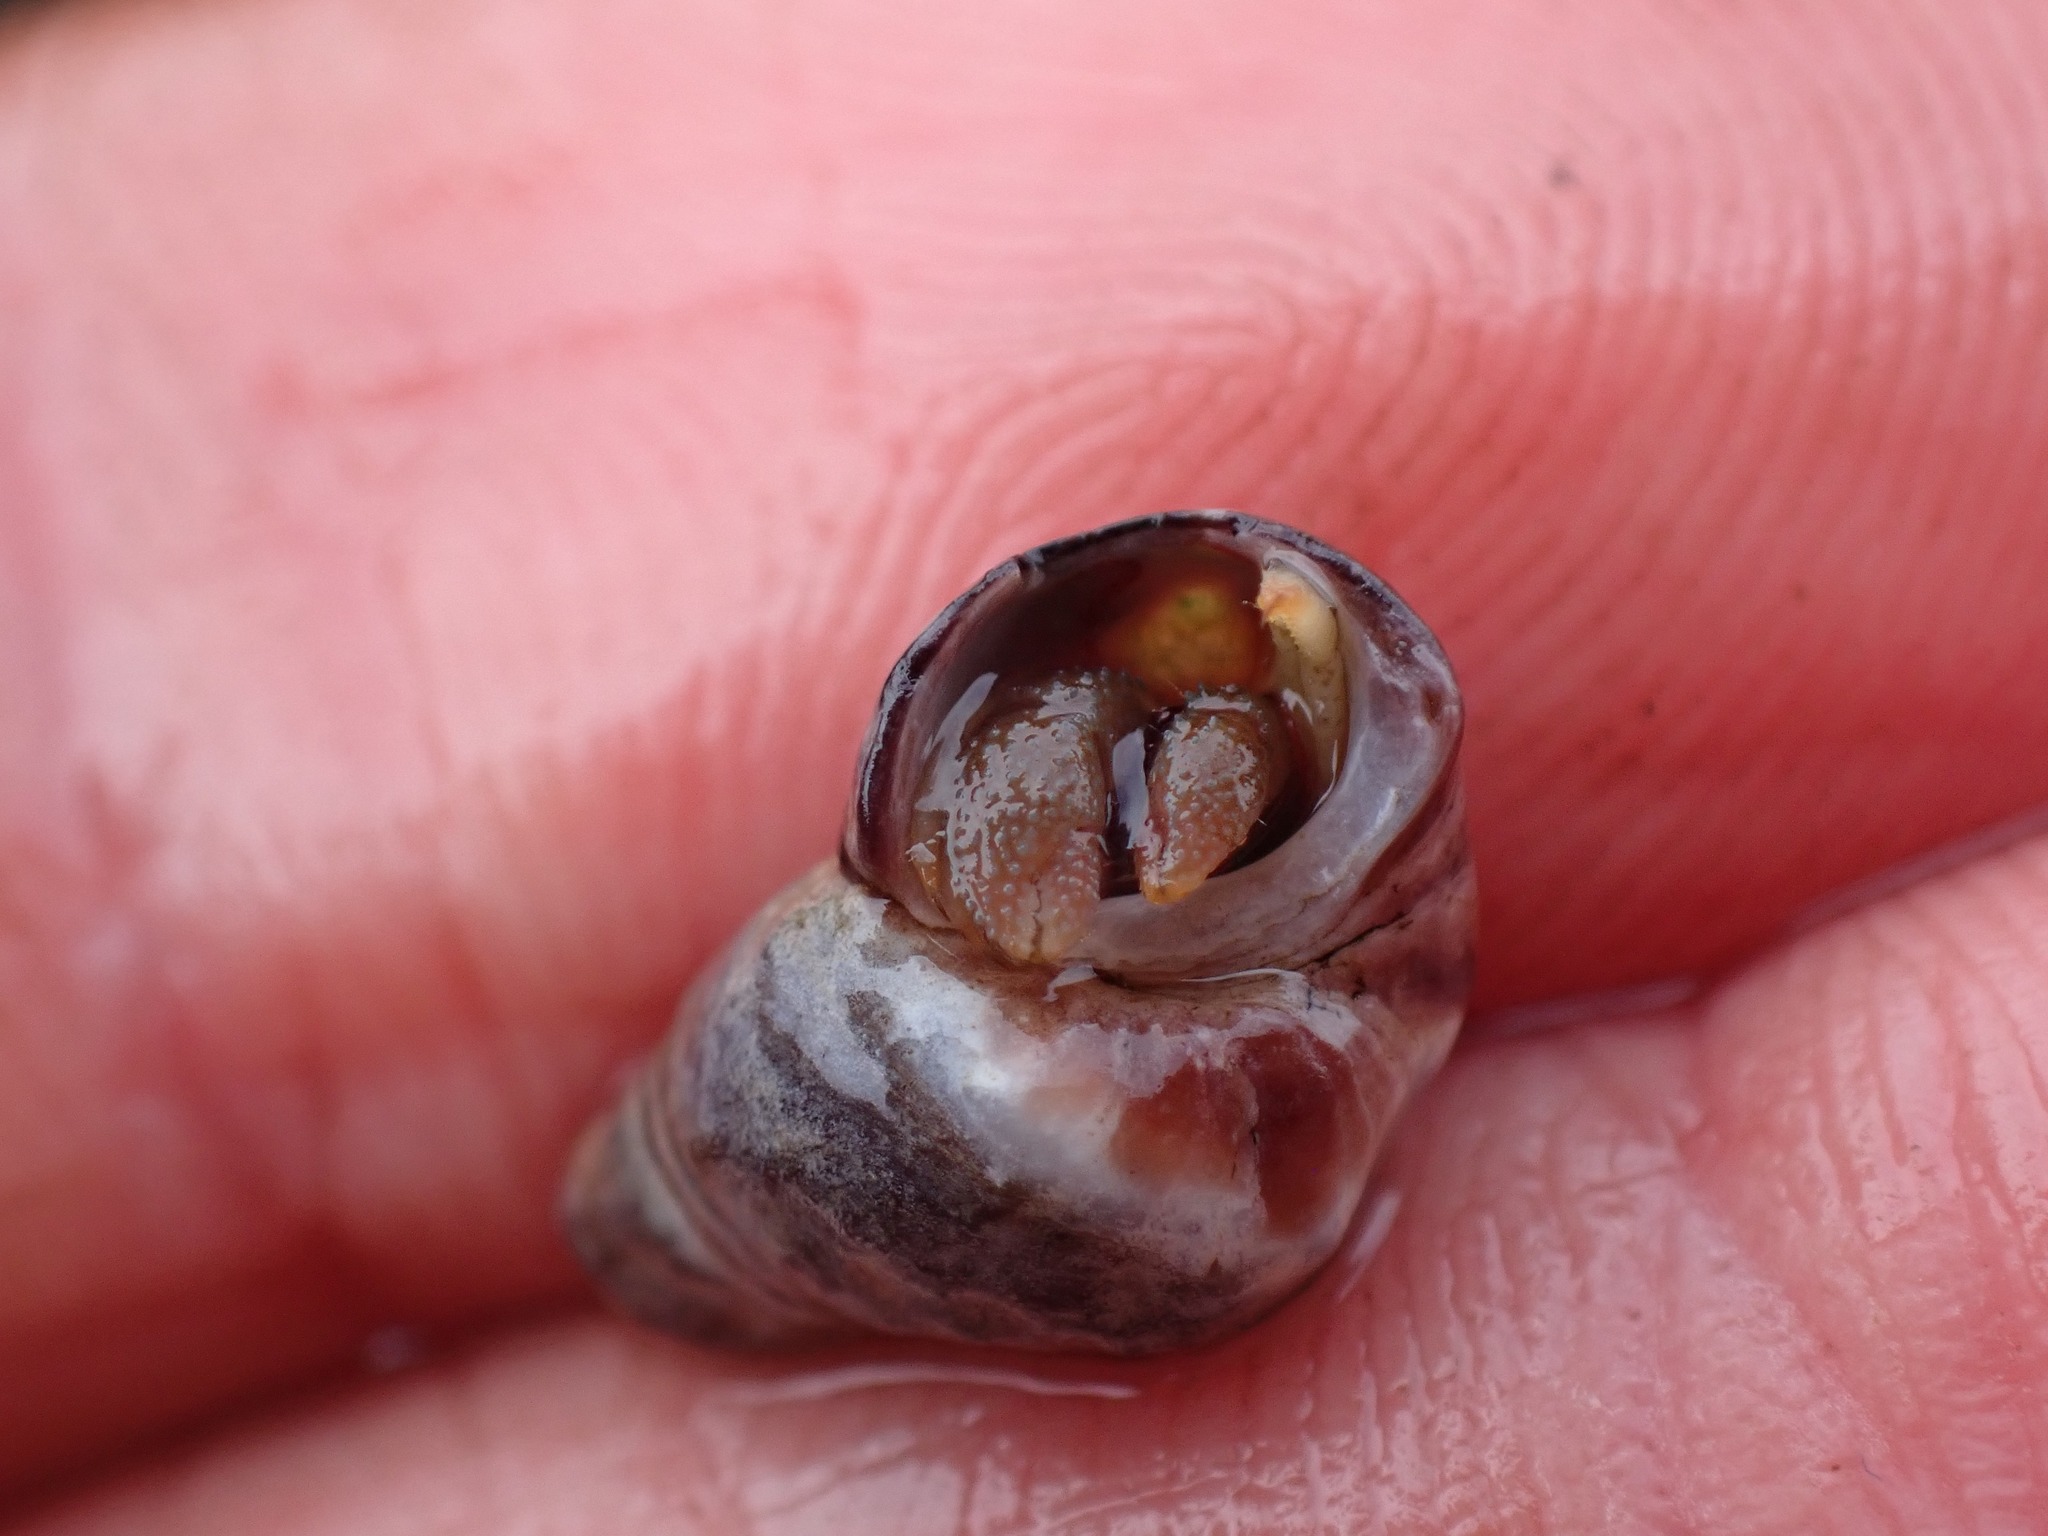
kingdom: Animalia
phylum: Arthropoda
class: Malacostraca
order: Decapoda
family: Paguridae
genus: Pagurus
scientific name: Pagurus granosimanus
